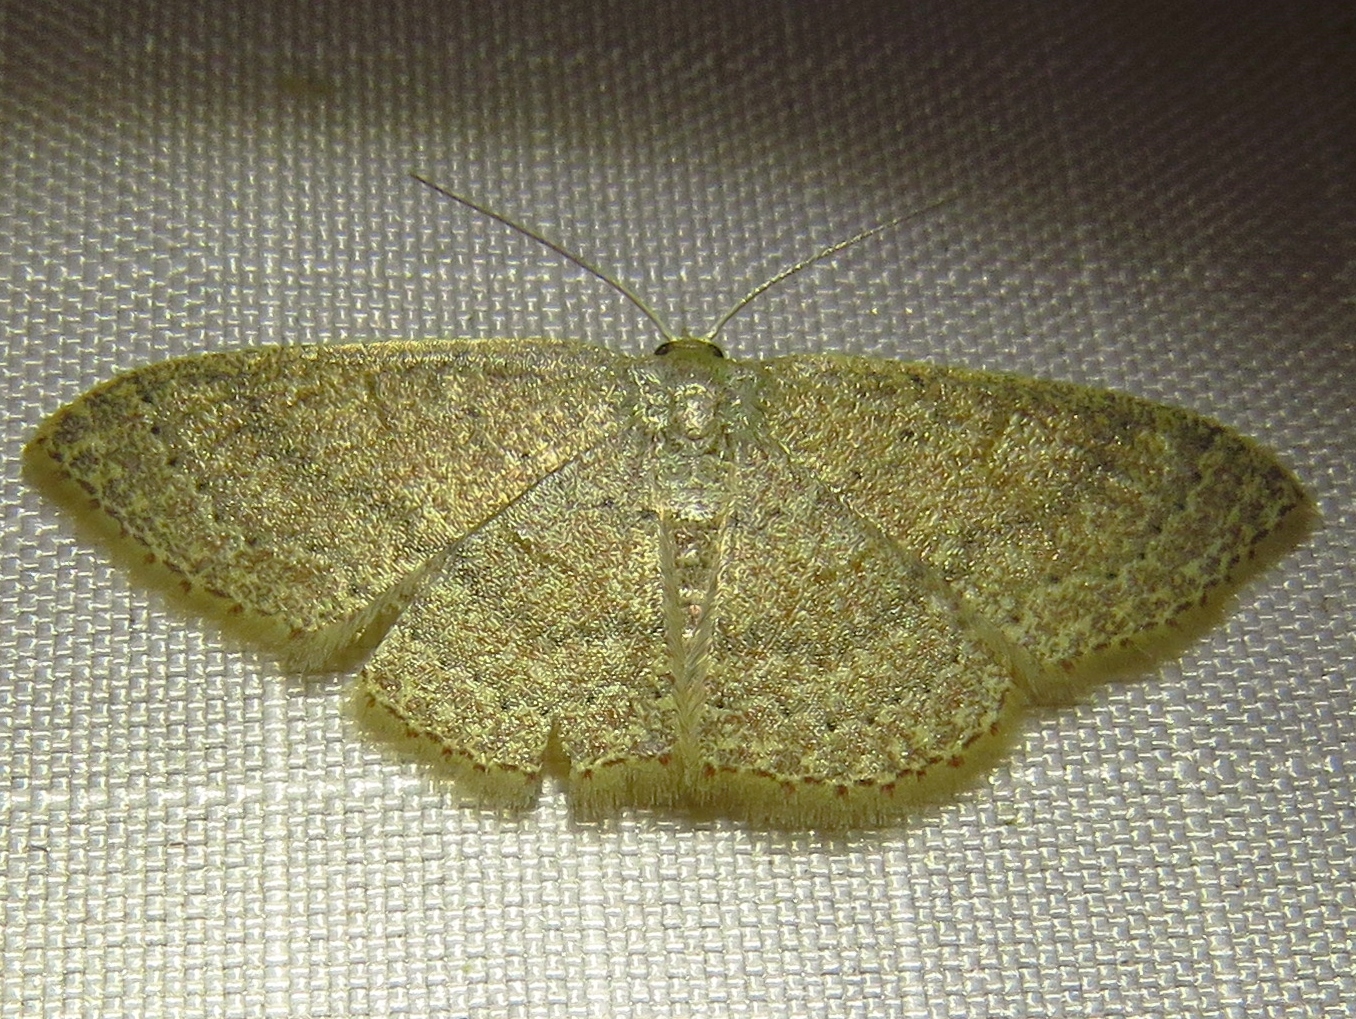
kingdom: Animalia
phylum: Arthropoda
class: Insecta
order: Lepidoptera
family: Geometridae
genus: Pleuroprucha
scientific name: Pleuroprucha insulsaria
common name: Common tan wave
